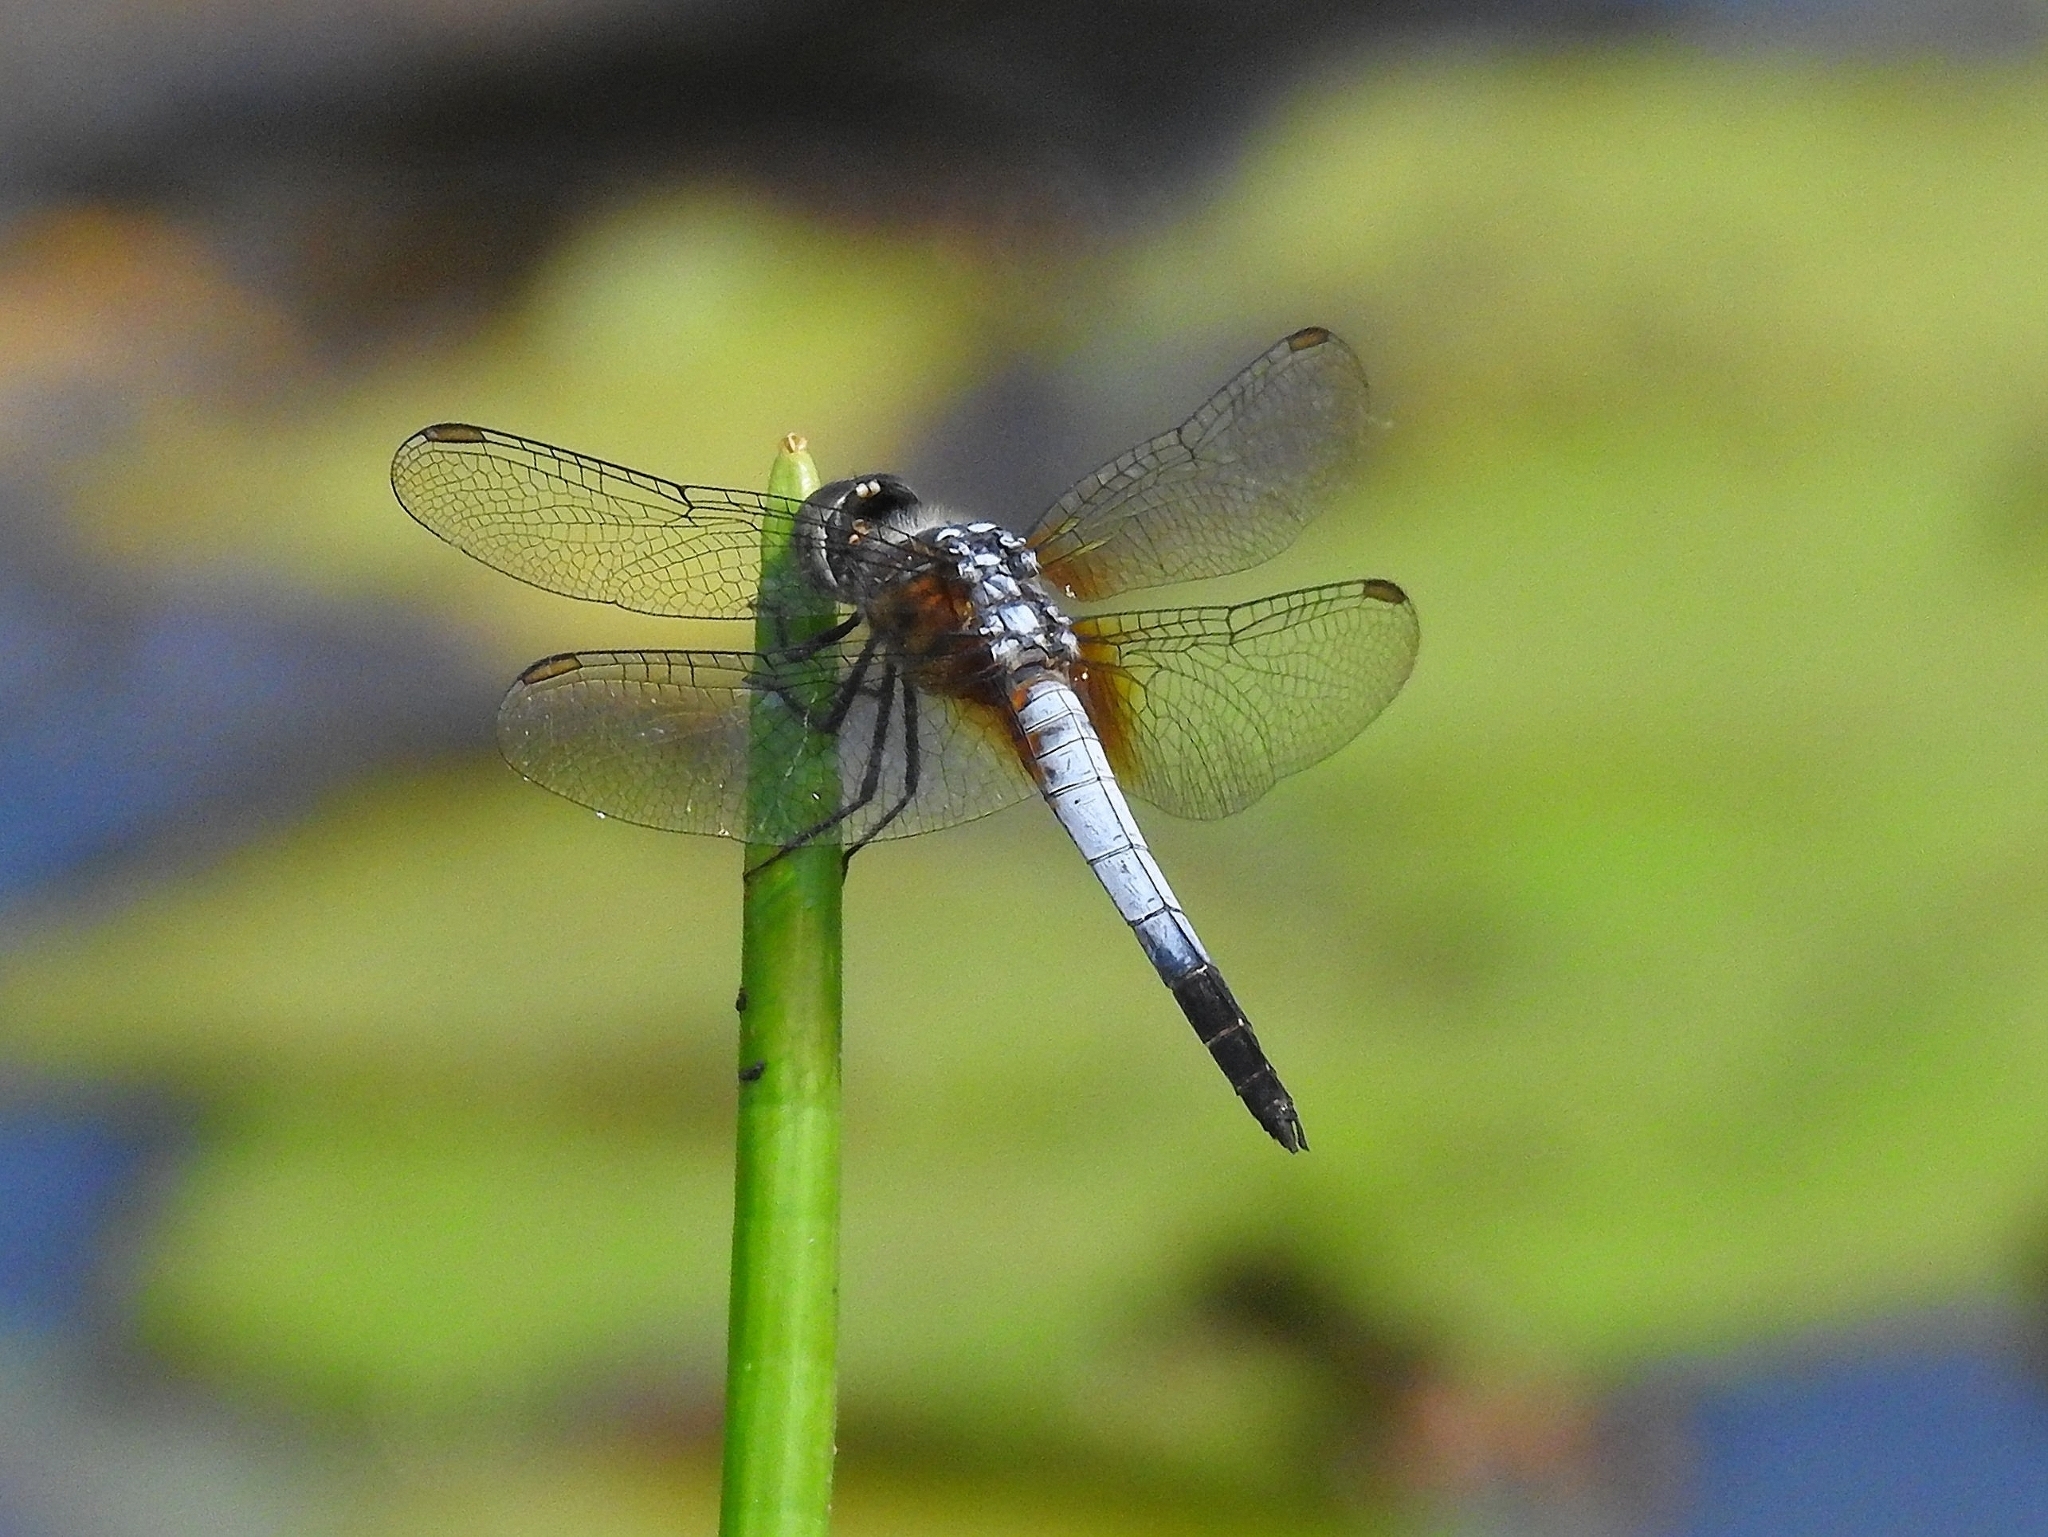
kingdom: Animalia
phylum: Arthropoda
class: Insecta
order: Odonata
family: Libellulidae
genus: Brachydiplax
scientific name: Brachydiplax chalybea
